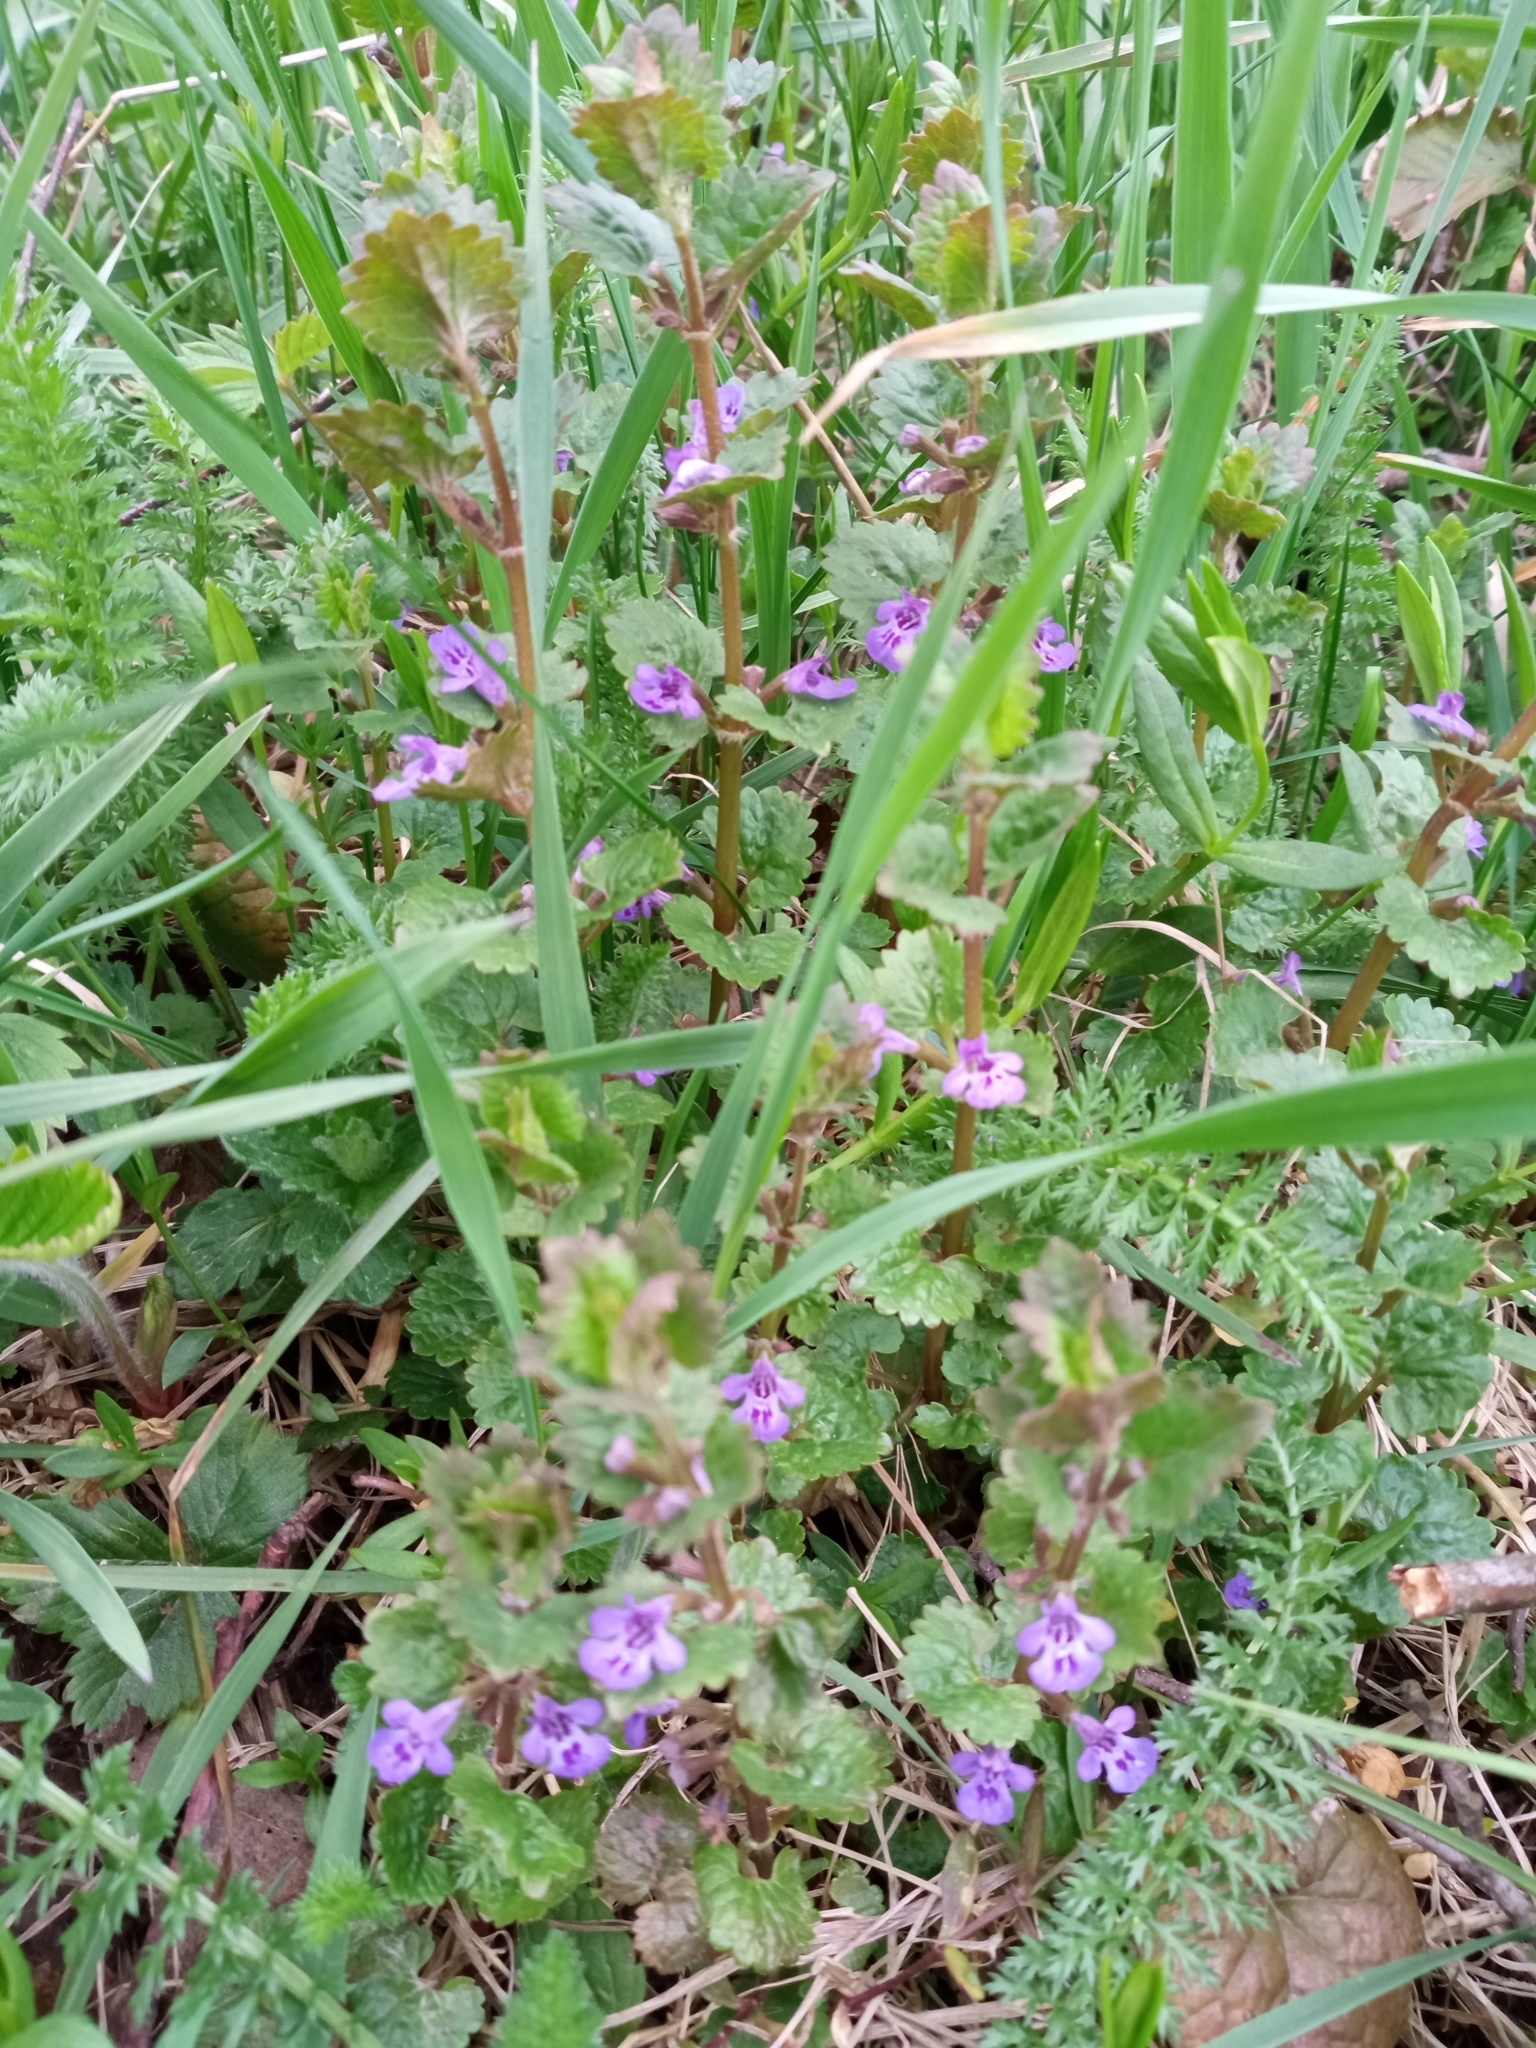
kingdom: Plantae
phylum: Tracheophyta
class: Magnoliopsida
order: Lamiales
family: Lamiaceae
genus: Glechoma
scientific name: Glechoma hederacea
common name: Ground ivy
